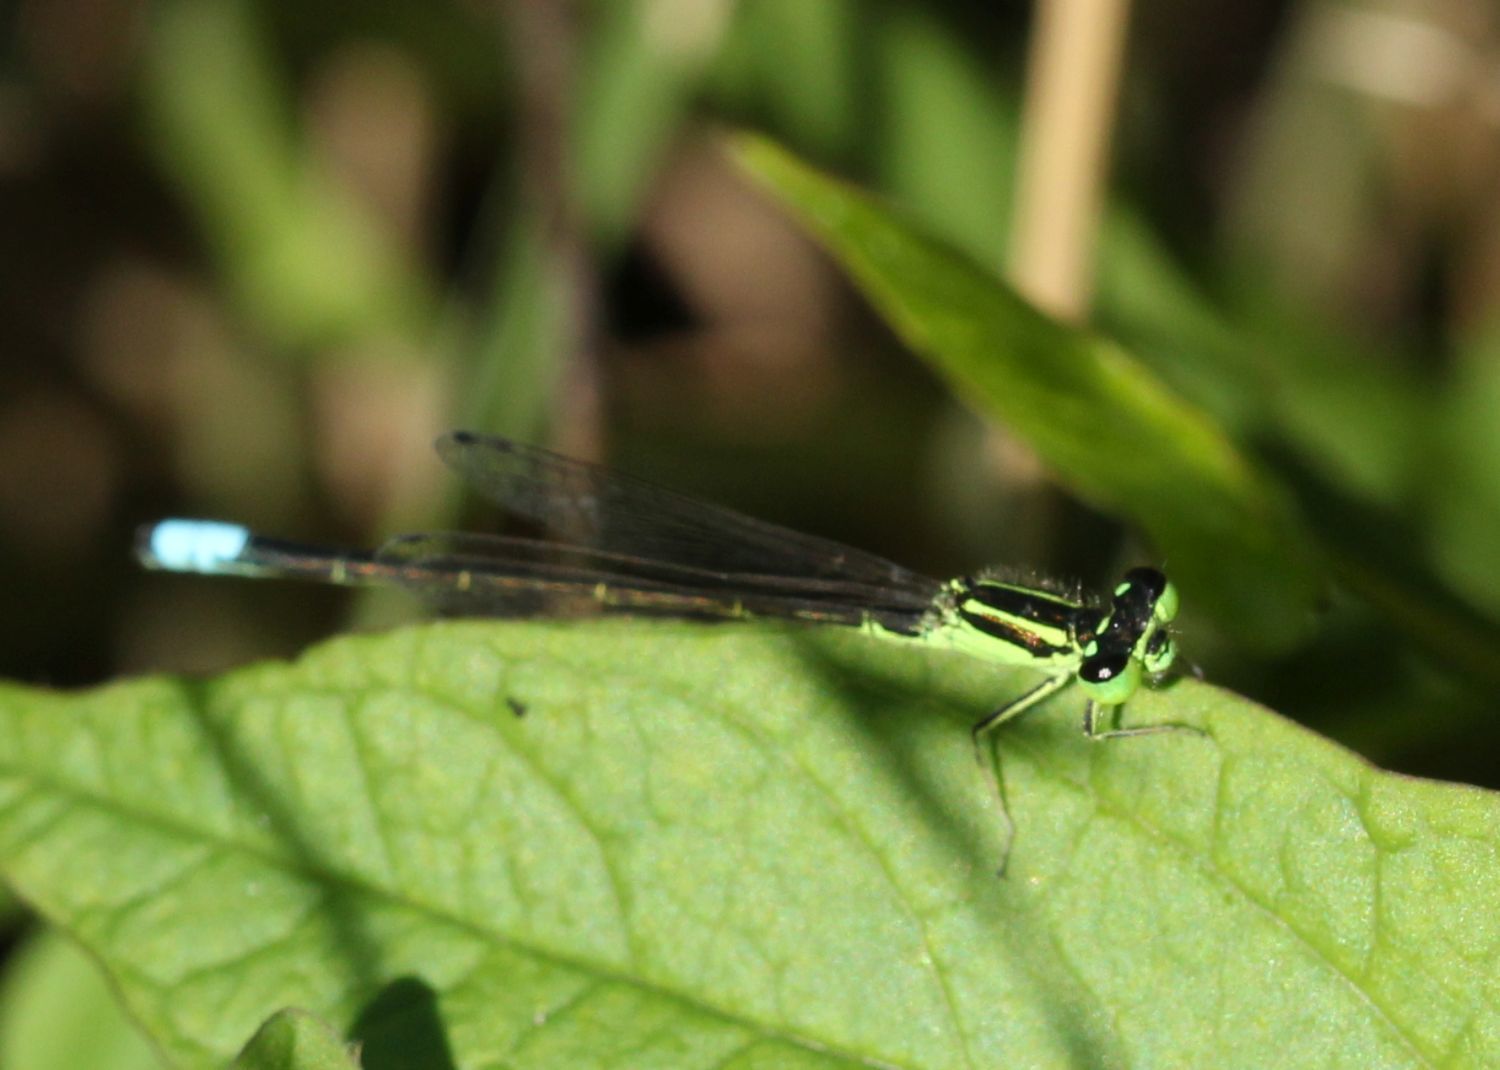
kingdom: Animalia
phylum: Arthropoda
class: Insecta
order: Odonata
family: Coenagrionidae
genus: Ischnura
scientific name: Ischnura verticalis
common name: Eastern forktail
